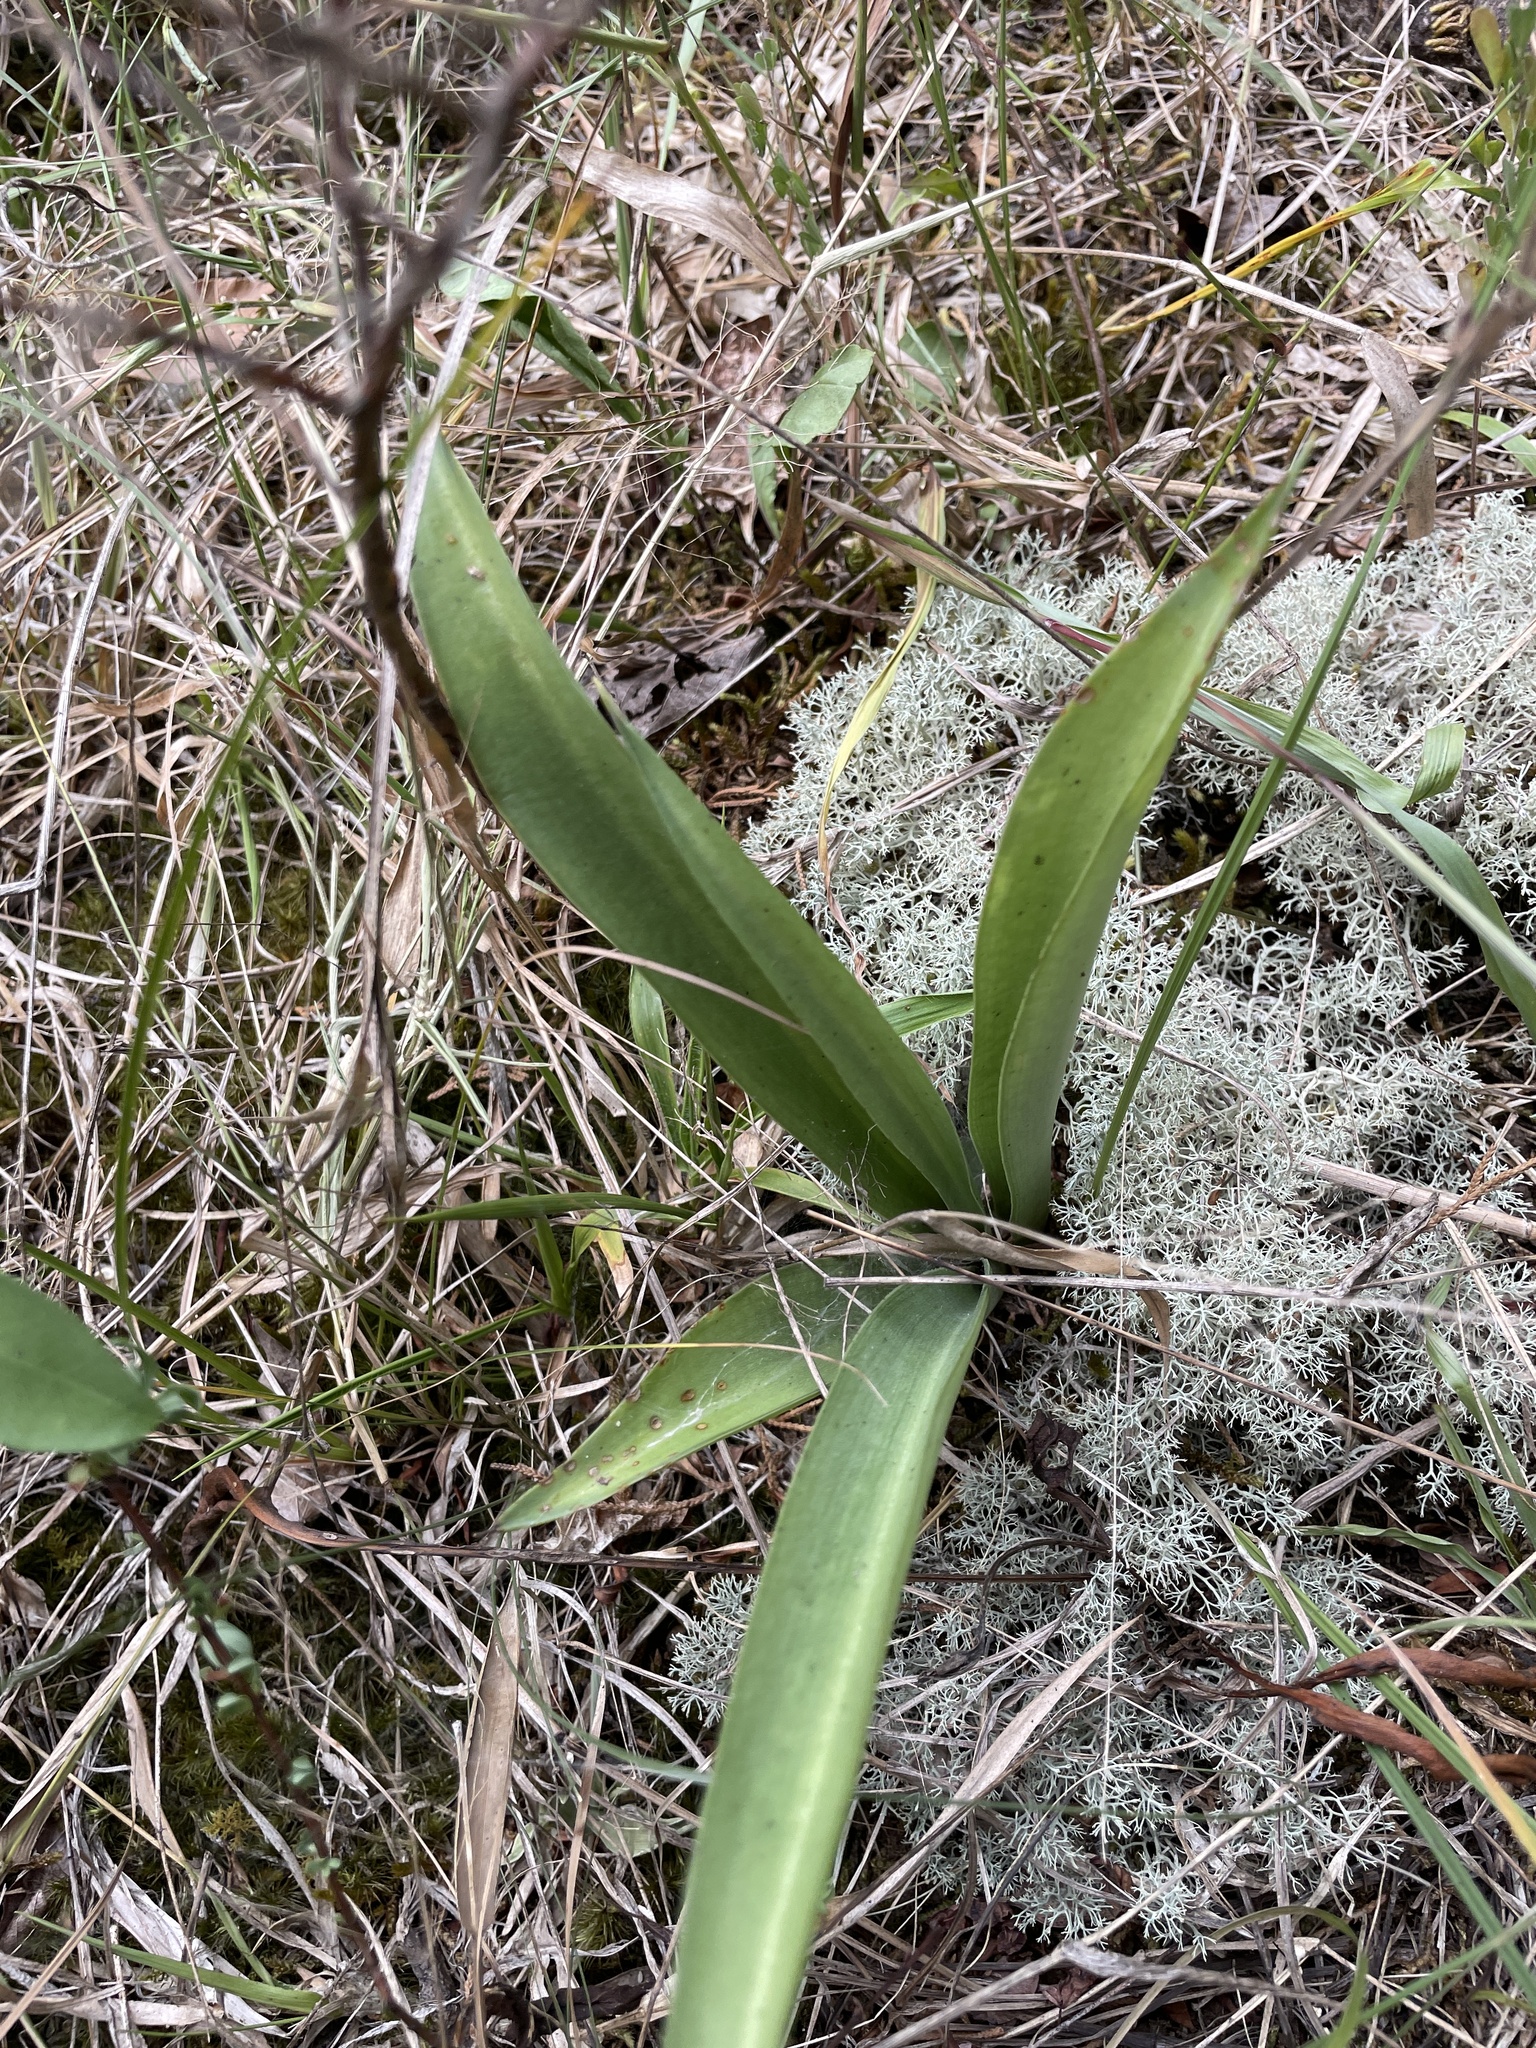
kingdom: Plantae
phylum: Tracheophyta
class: Liliopsida
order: Asparagales
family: Asparagaceae
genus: Agave
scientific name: Agave virginica
